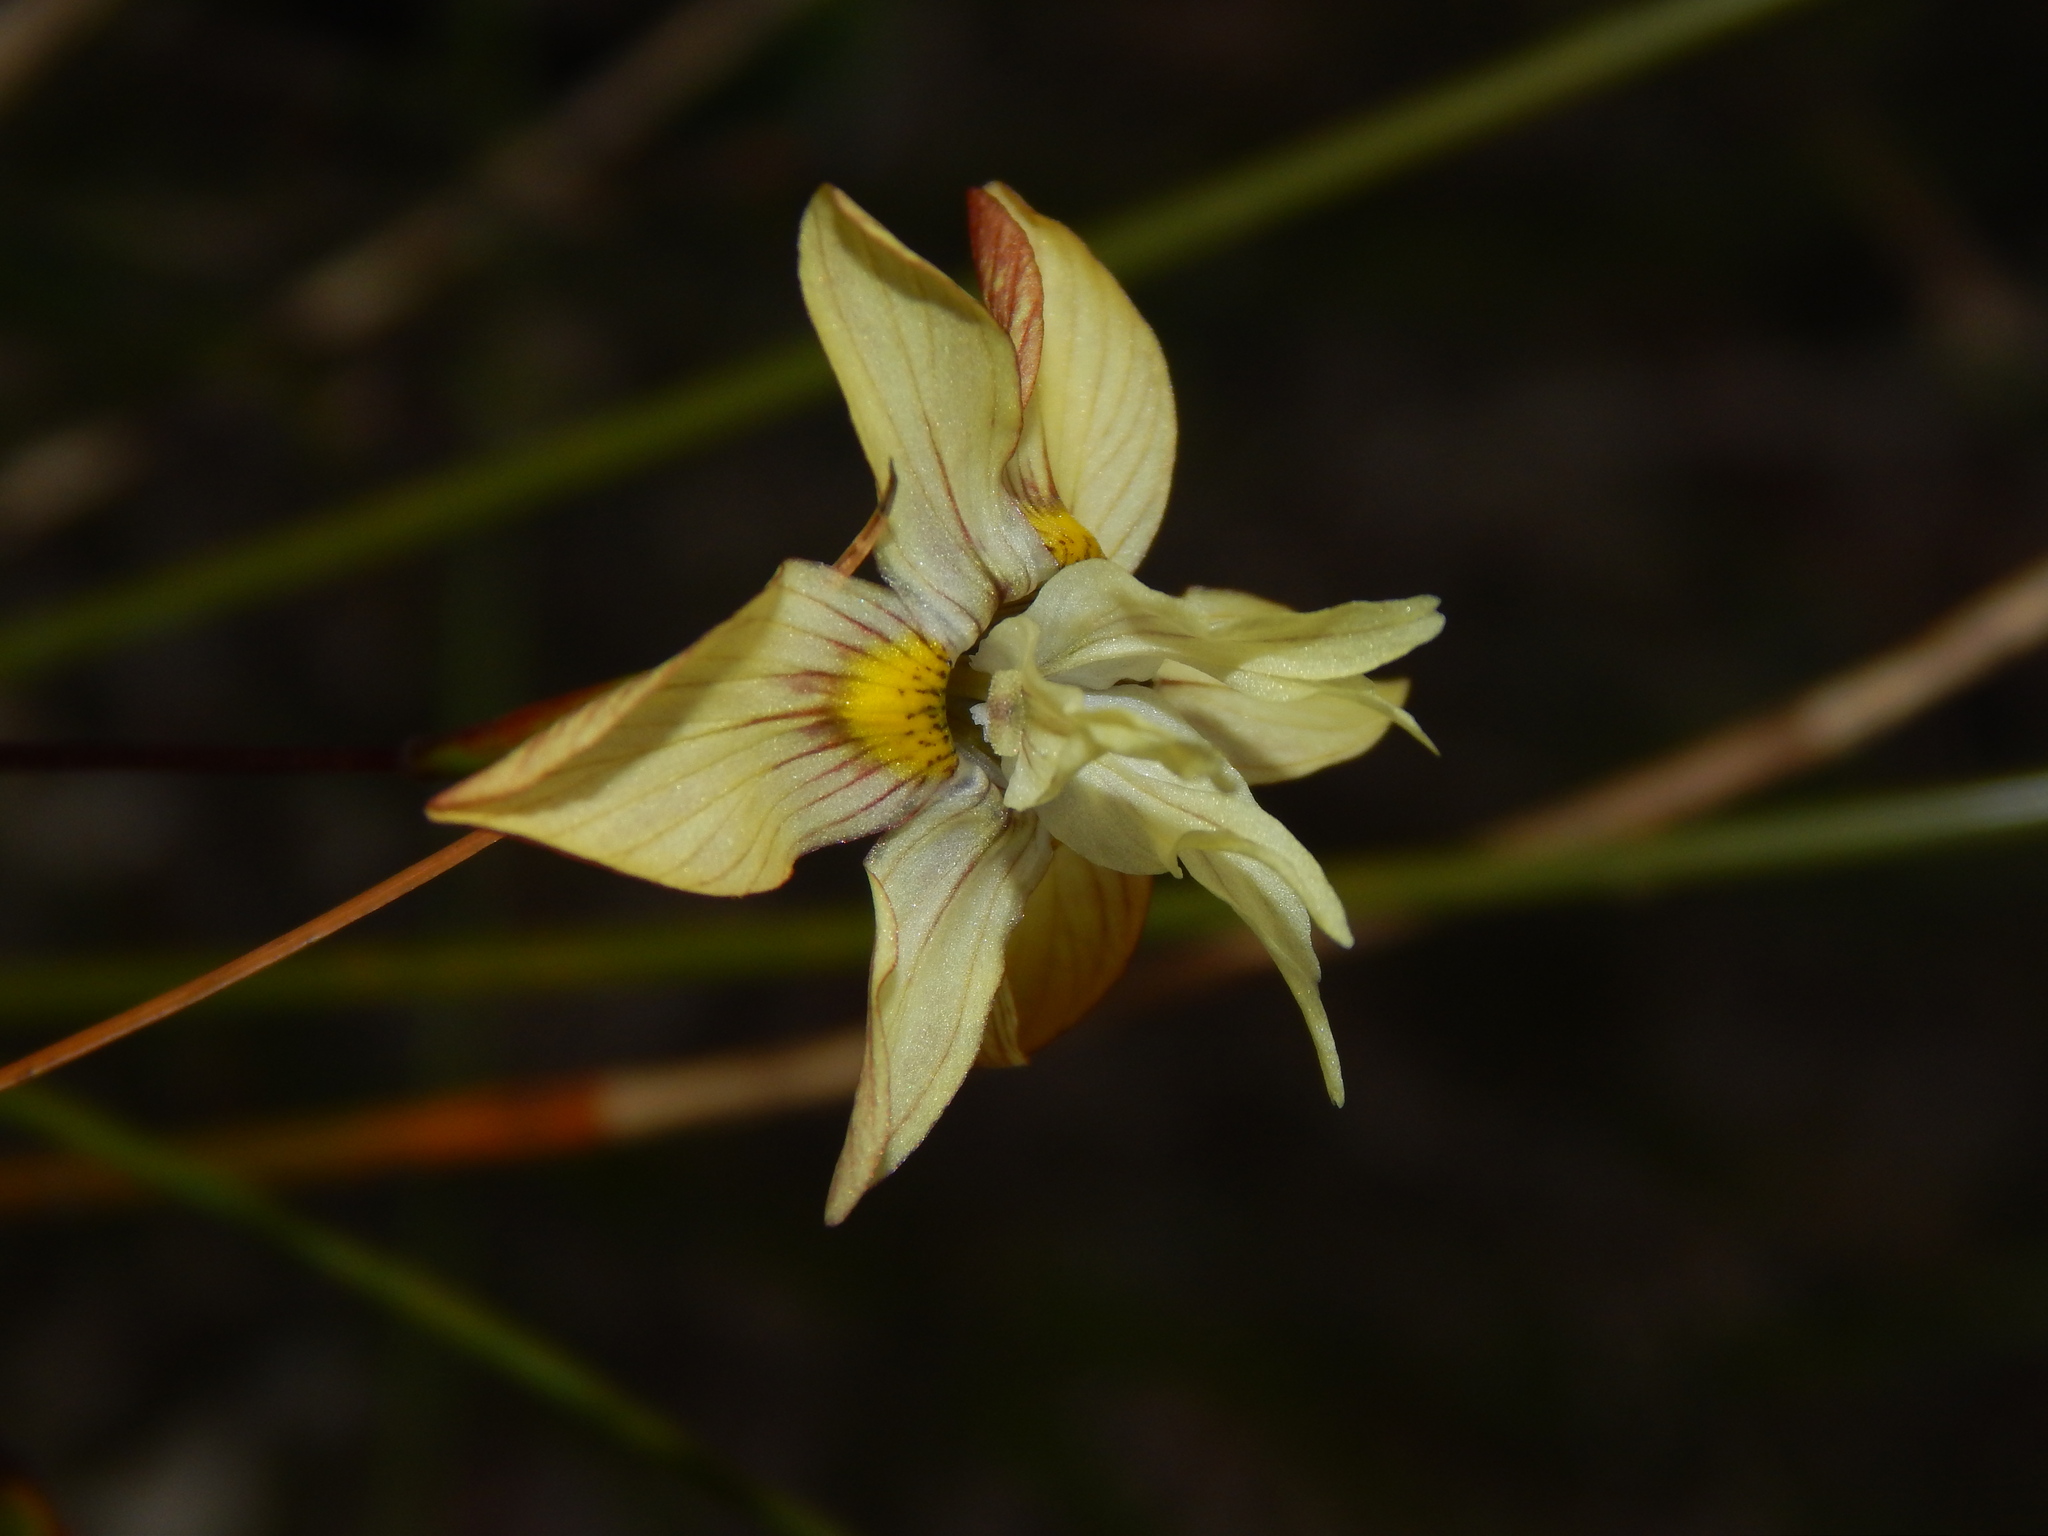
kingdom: Plantae
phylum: Tracheophyta
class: Liliopsida
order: Asparagales
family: Iridaceae
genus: Moraea
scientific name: Moraea gawleri
